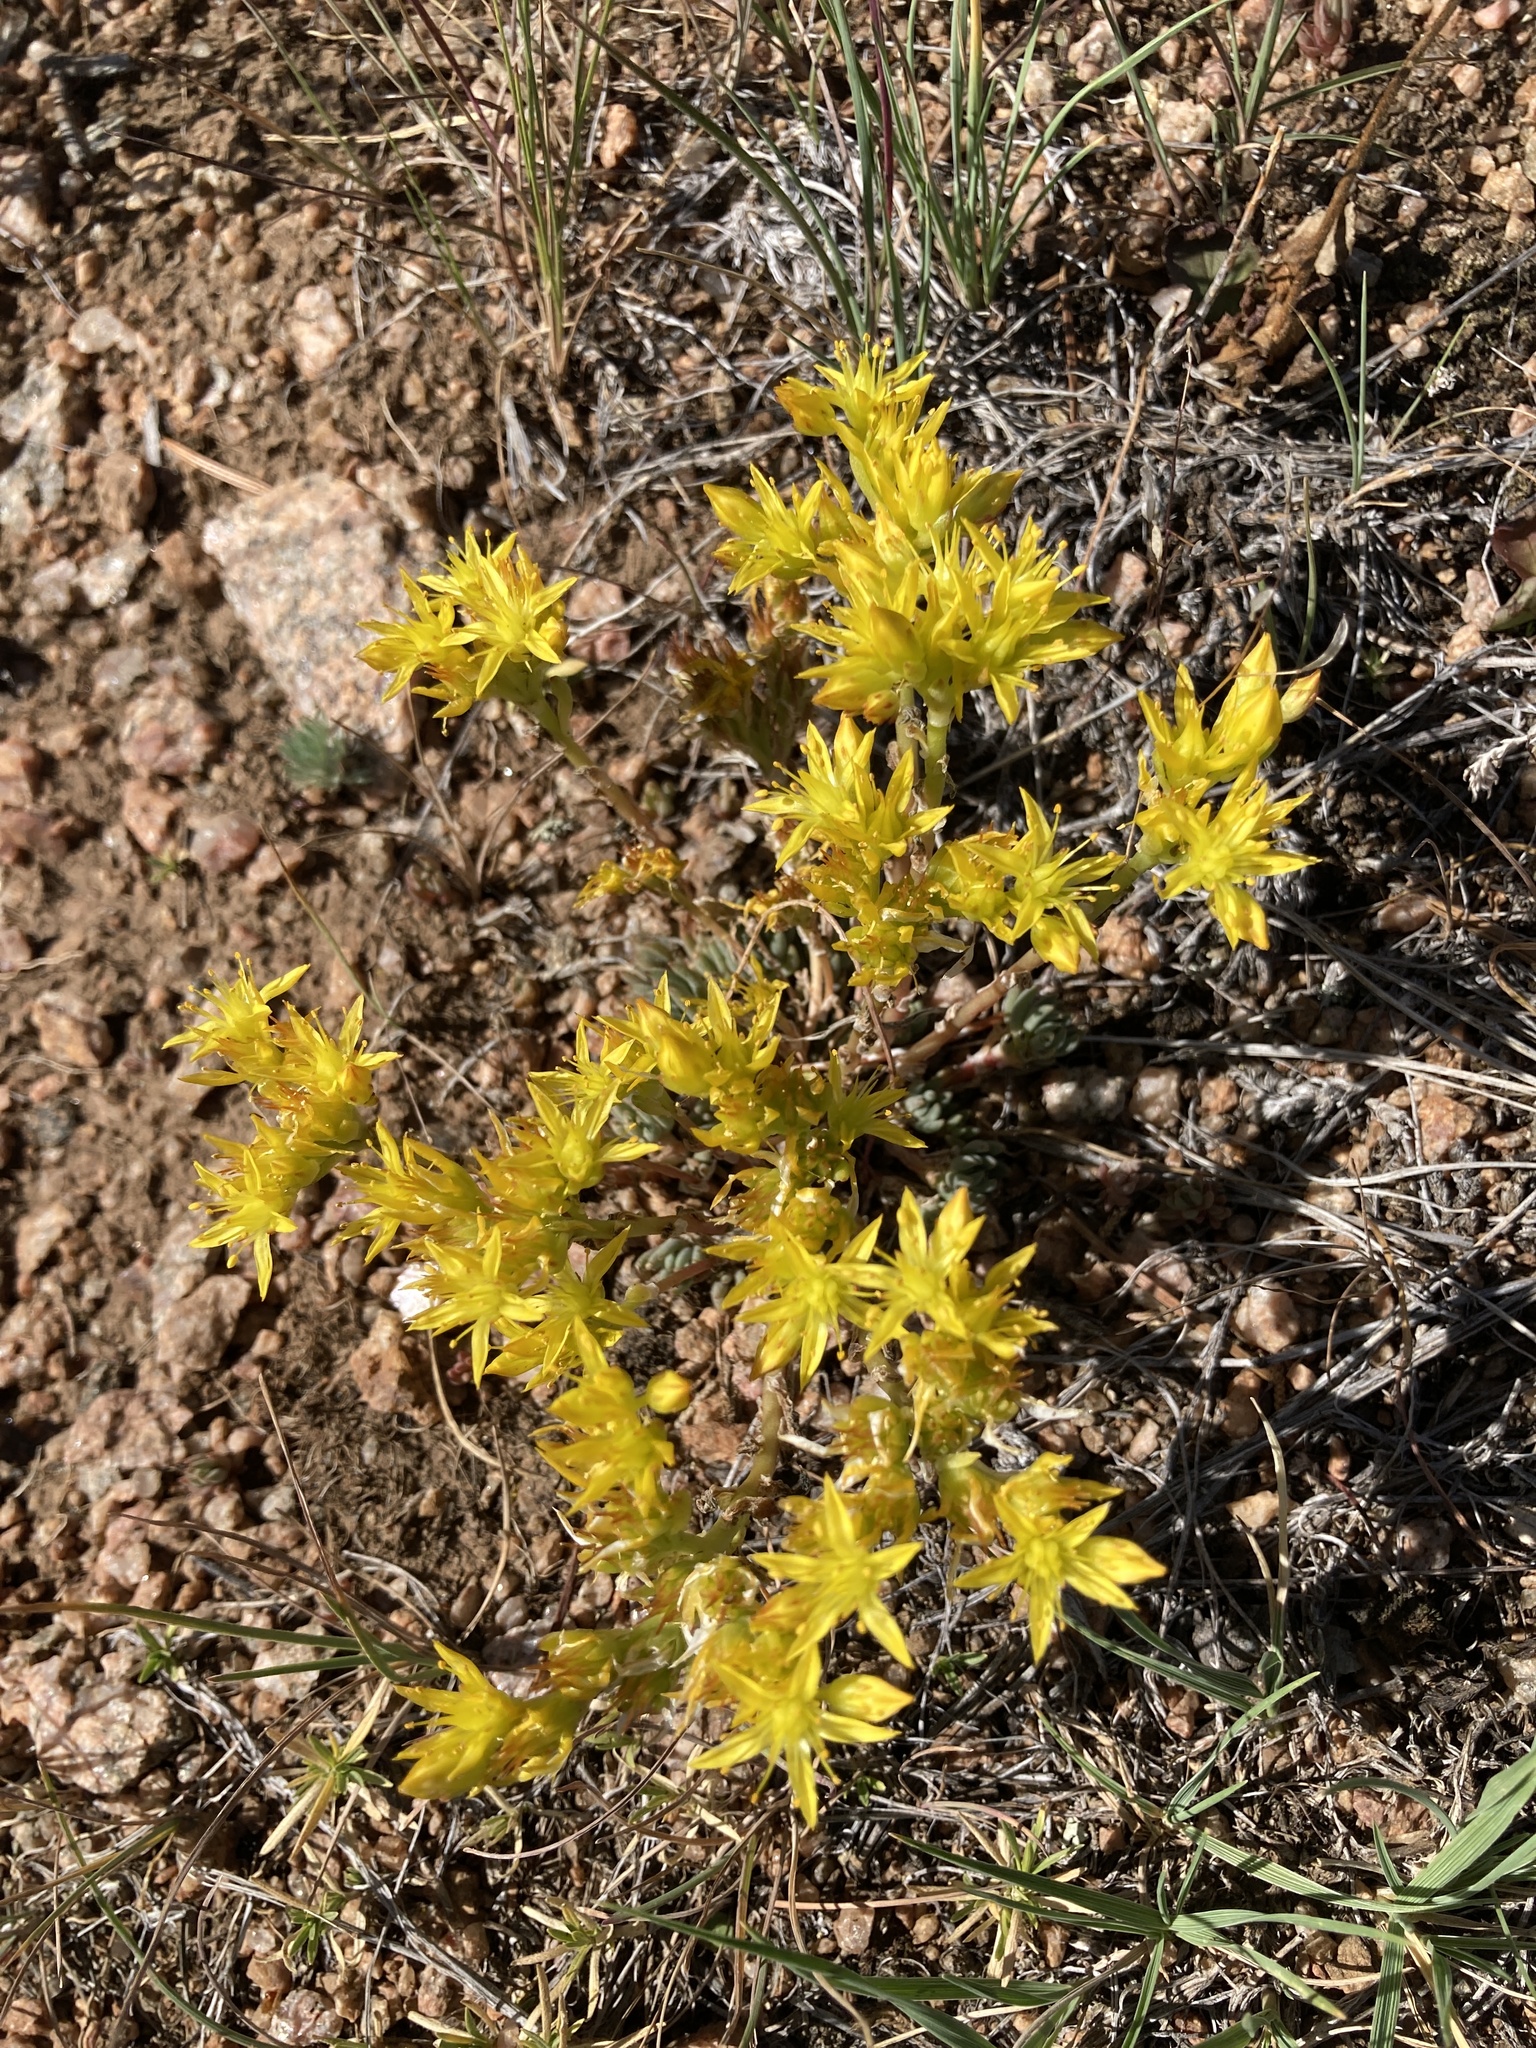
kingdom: Plantae
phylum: Tracheophyta
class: Magnoliopsida
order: Saxifragales
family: Crassulaceae
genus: Sedum
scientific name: Sedum lanceolatum
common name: Common stonecrop
